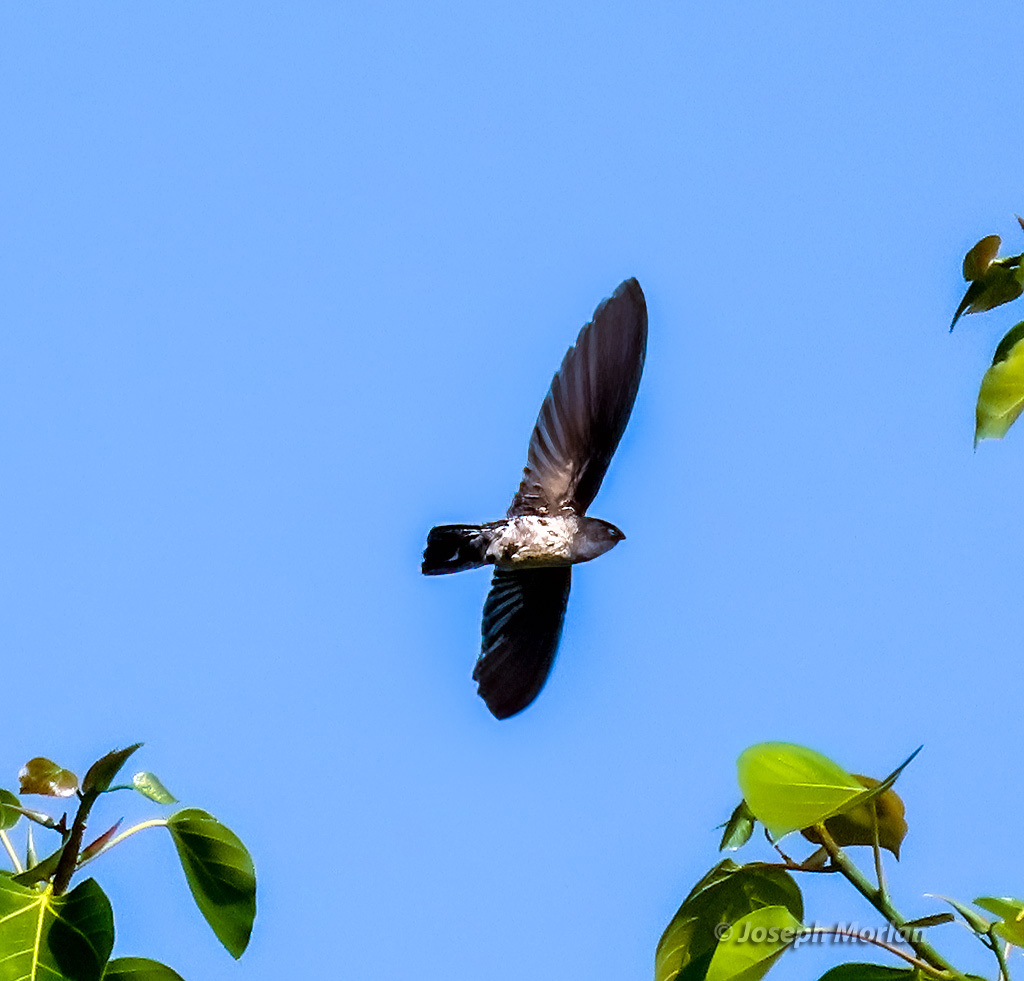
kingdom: Animalia
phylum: Chordata
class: Aves
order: Apodiformes
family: Apodidae
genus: Collocalia
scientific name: Collocalia esculenta
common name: Glossy swiftlet
